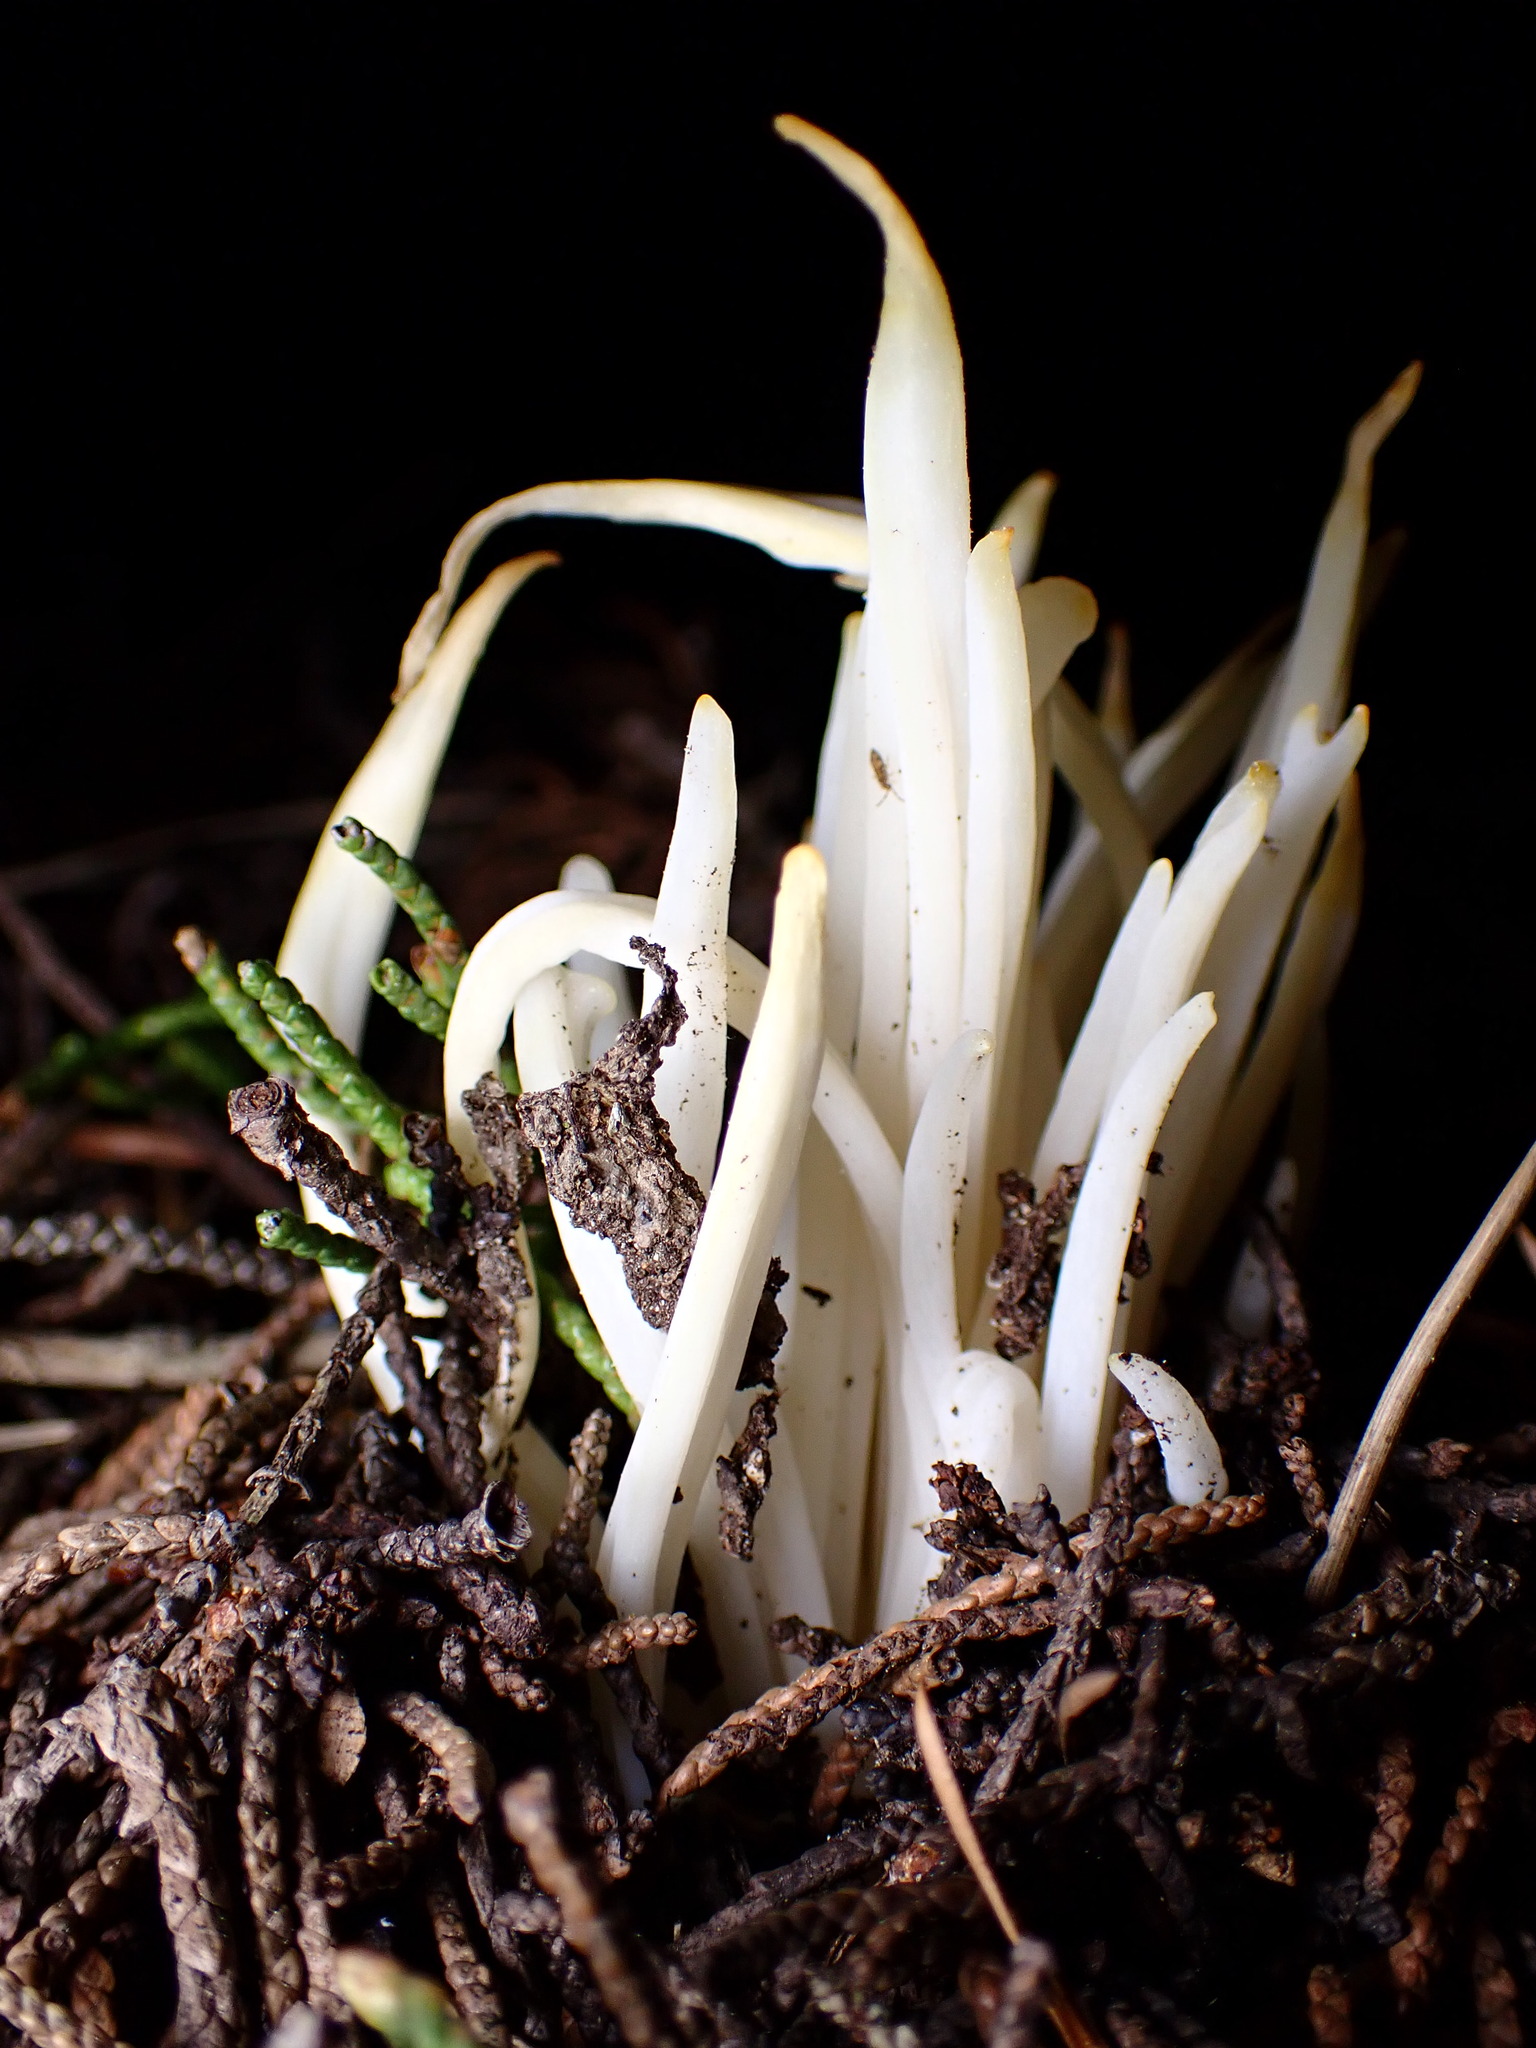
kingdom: Fungi
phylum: Basidiomycota
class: Agaricomycetes
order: Agaricales
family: Clavariaceae
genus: Clavaria
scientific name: Clavaria fragilis
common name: White spindles
